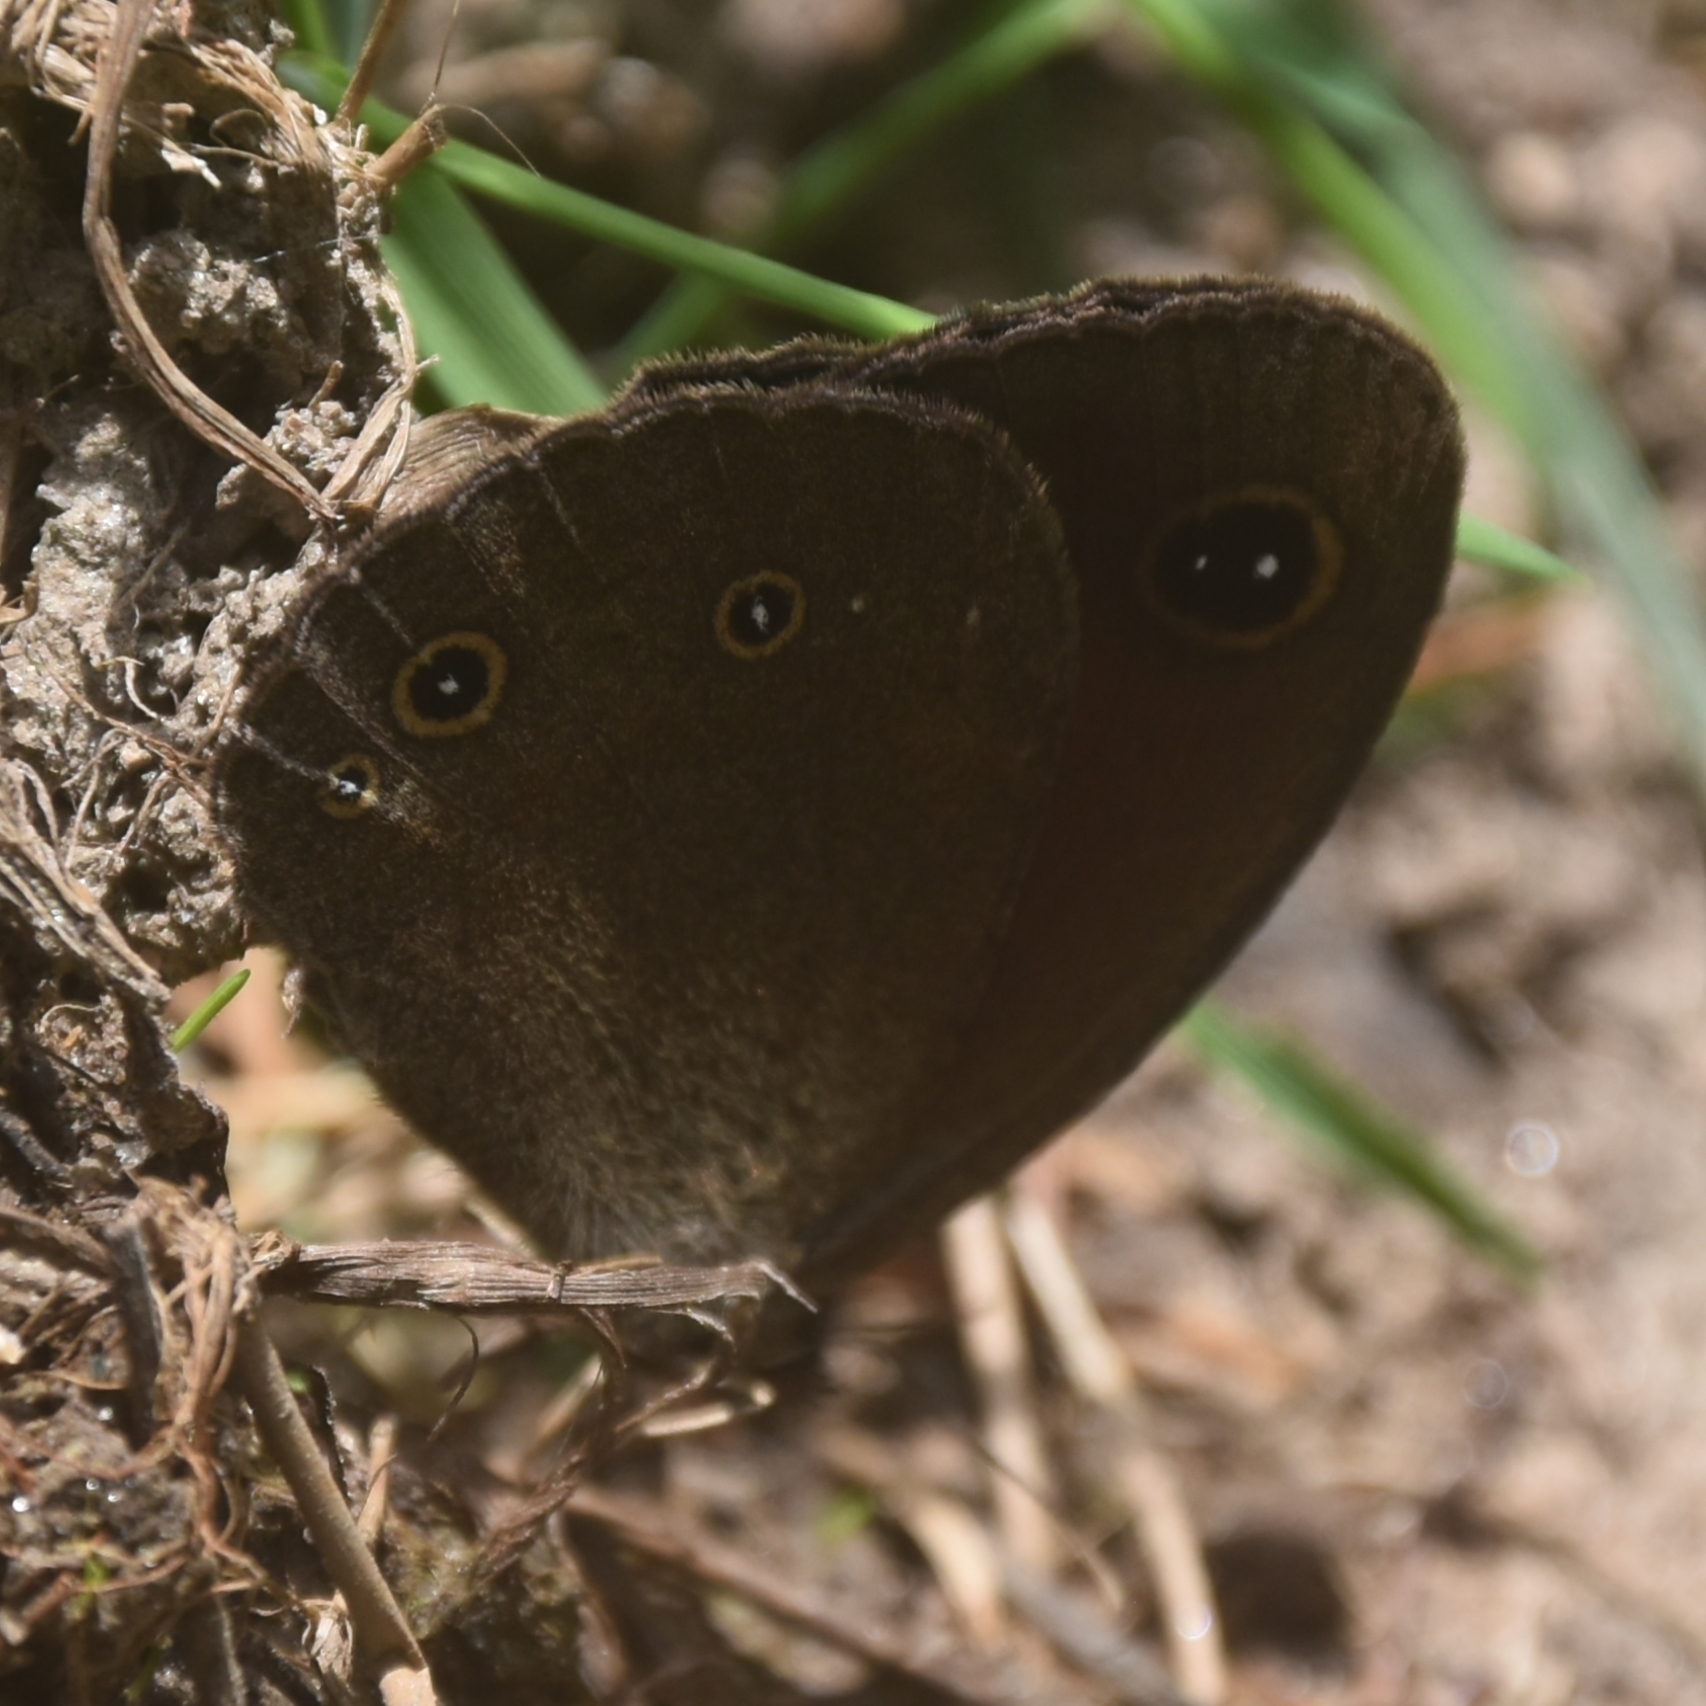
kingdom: Animalia
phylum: Arthropoda
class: Insecta
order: Lepidoptera
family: Nymphalidae
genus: Callerebia
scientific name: Callerebia nirmala
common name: Common argus
